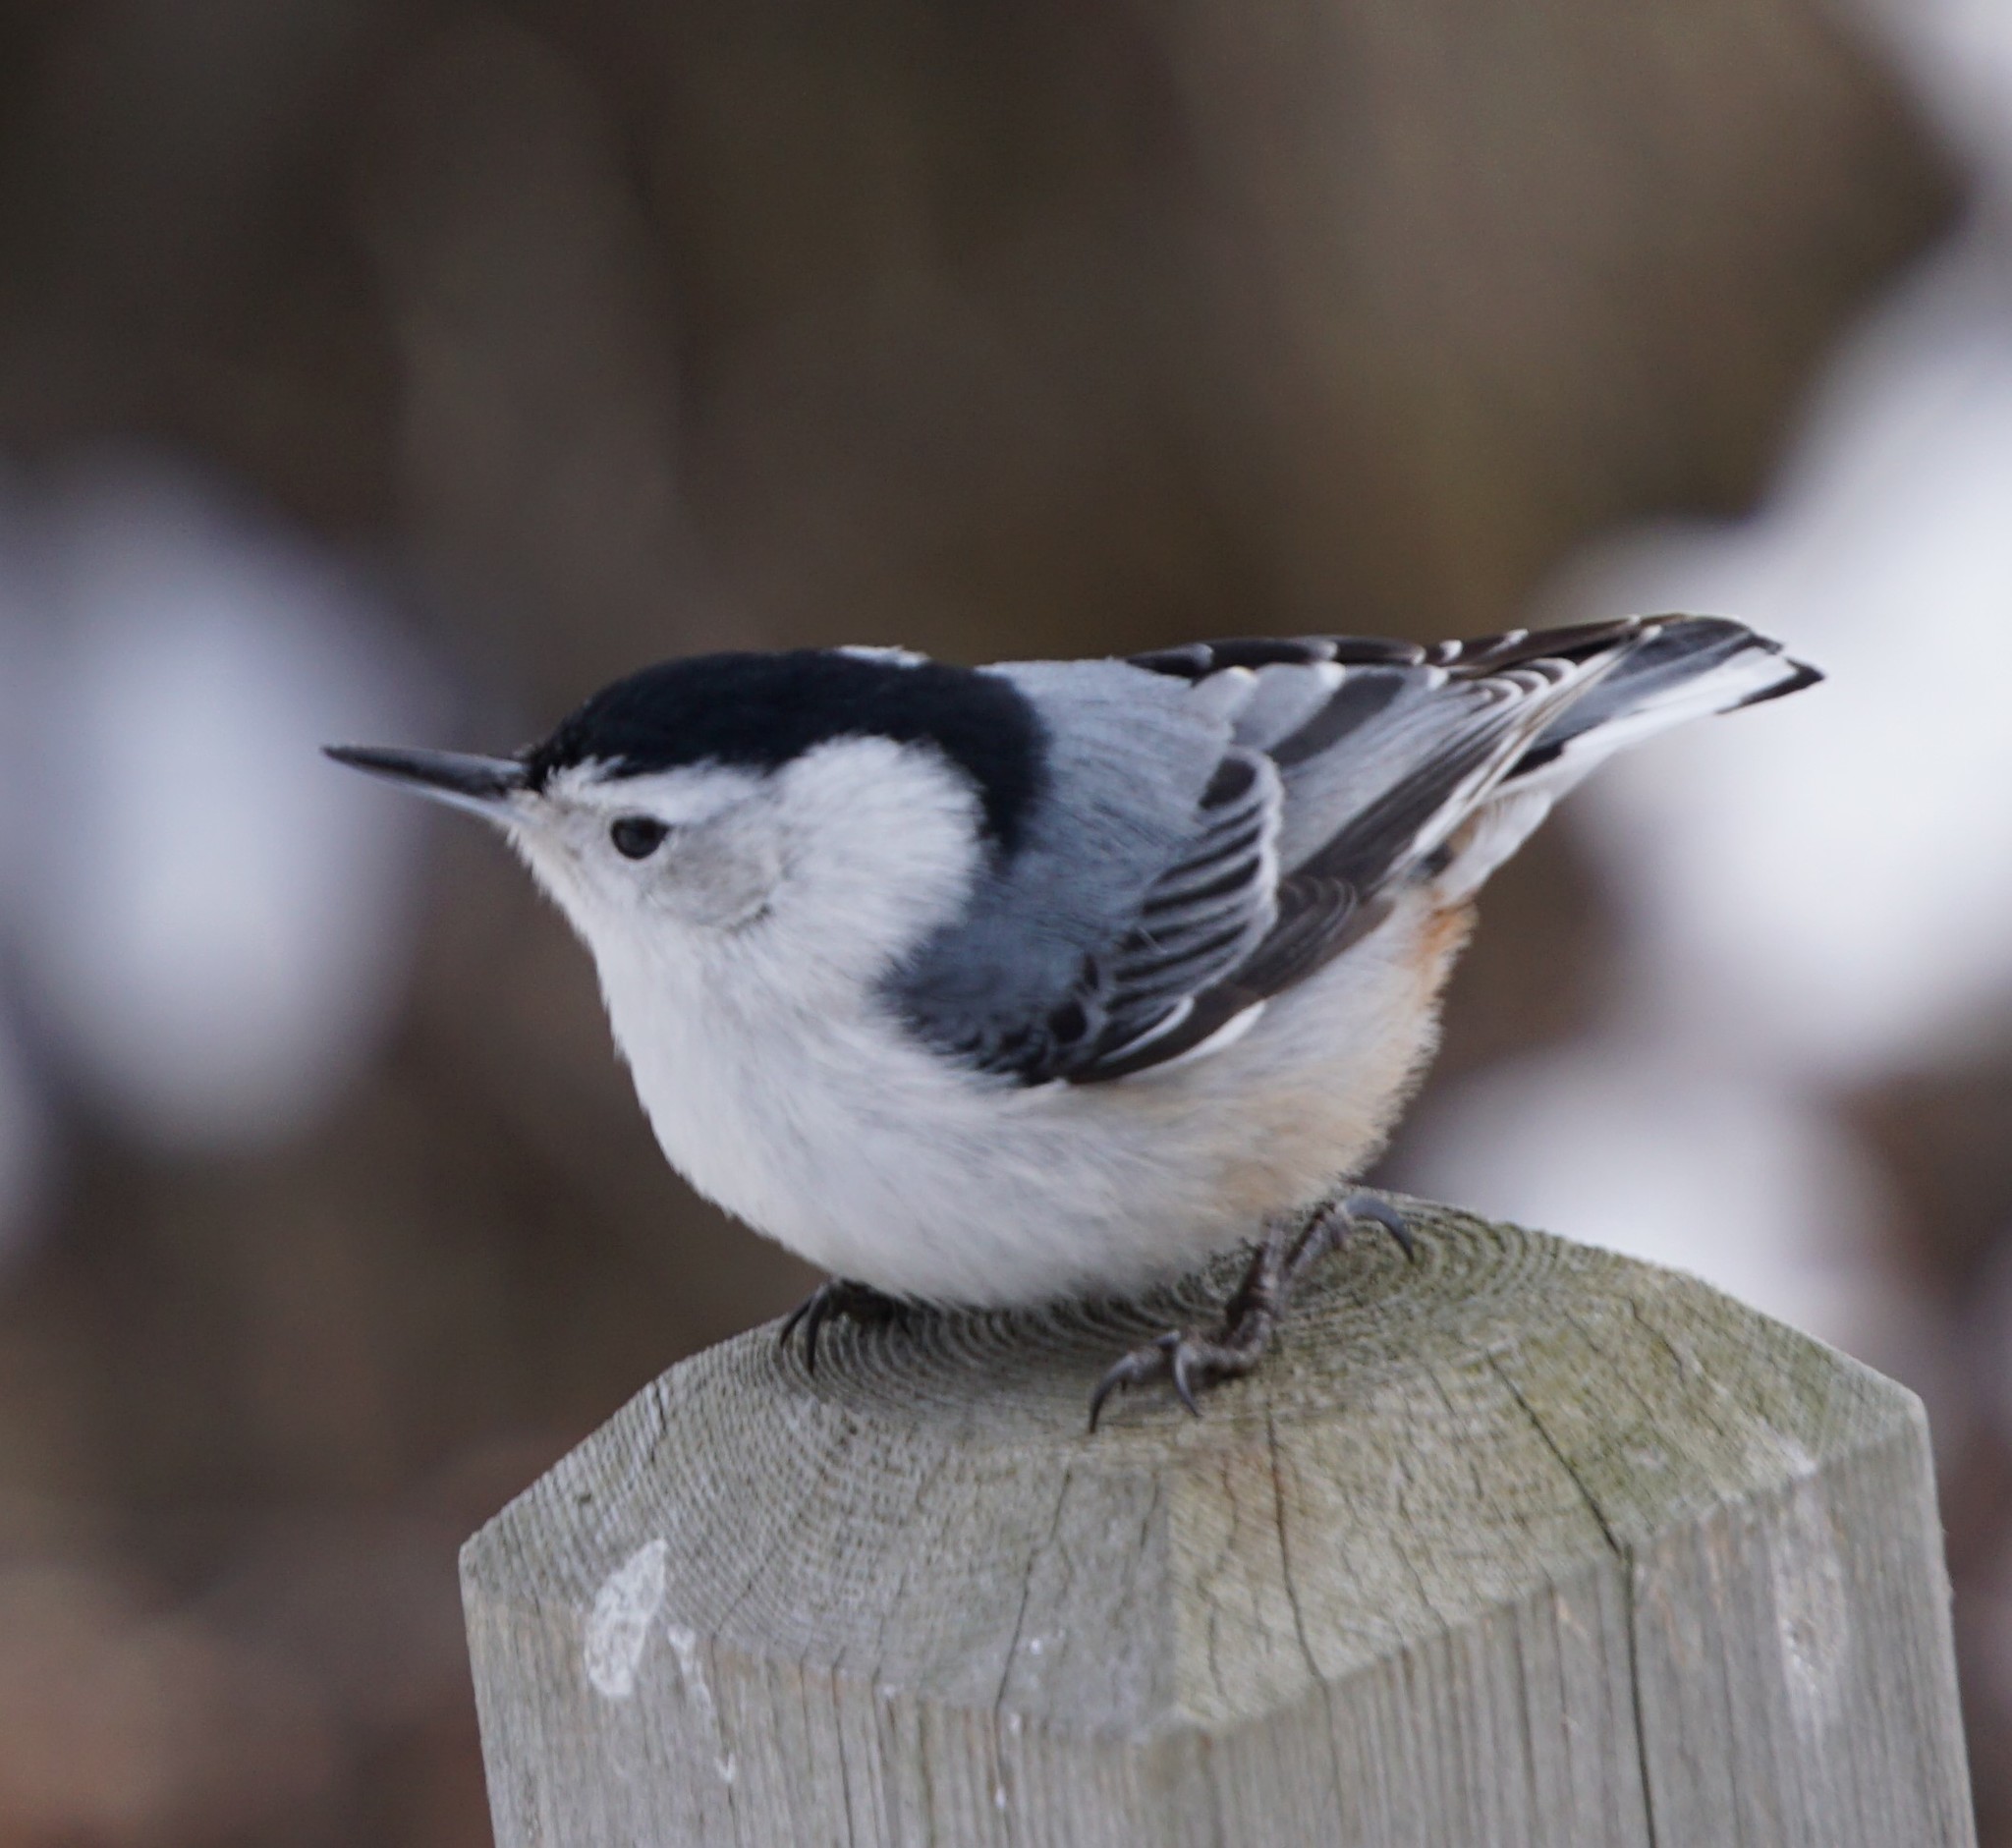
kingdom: Animalia
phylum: Chordata
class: Aves
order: Passeriformes
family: Sittidae
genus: Sitta
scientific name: Sitta carolinensis
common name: White-breasted nuthatch
